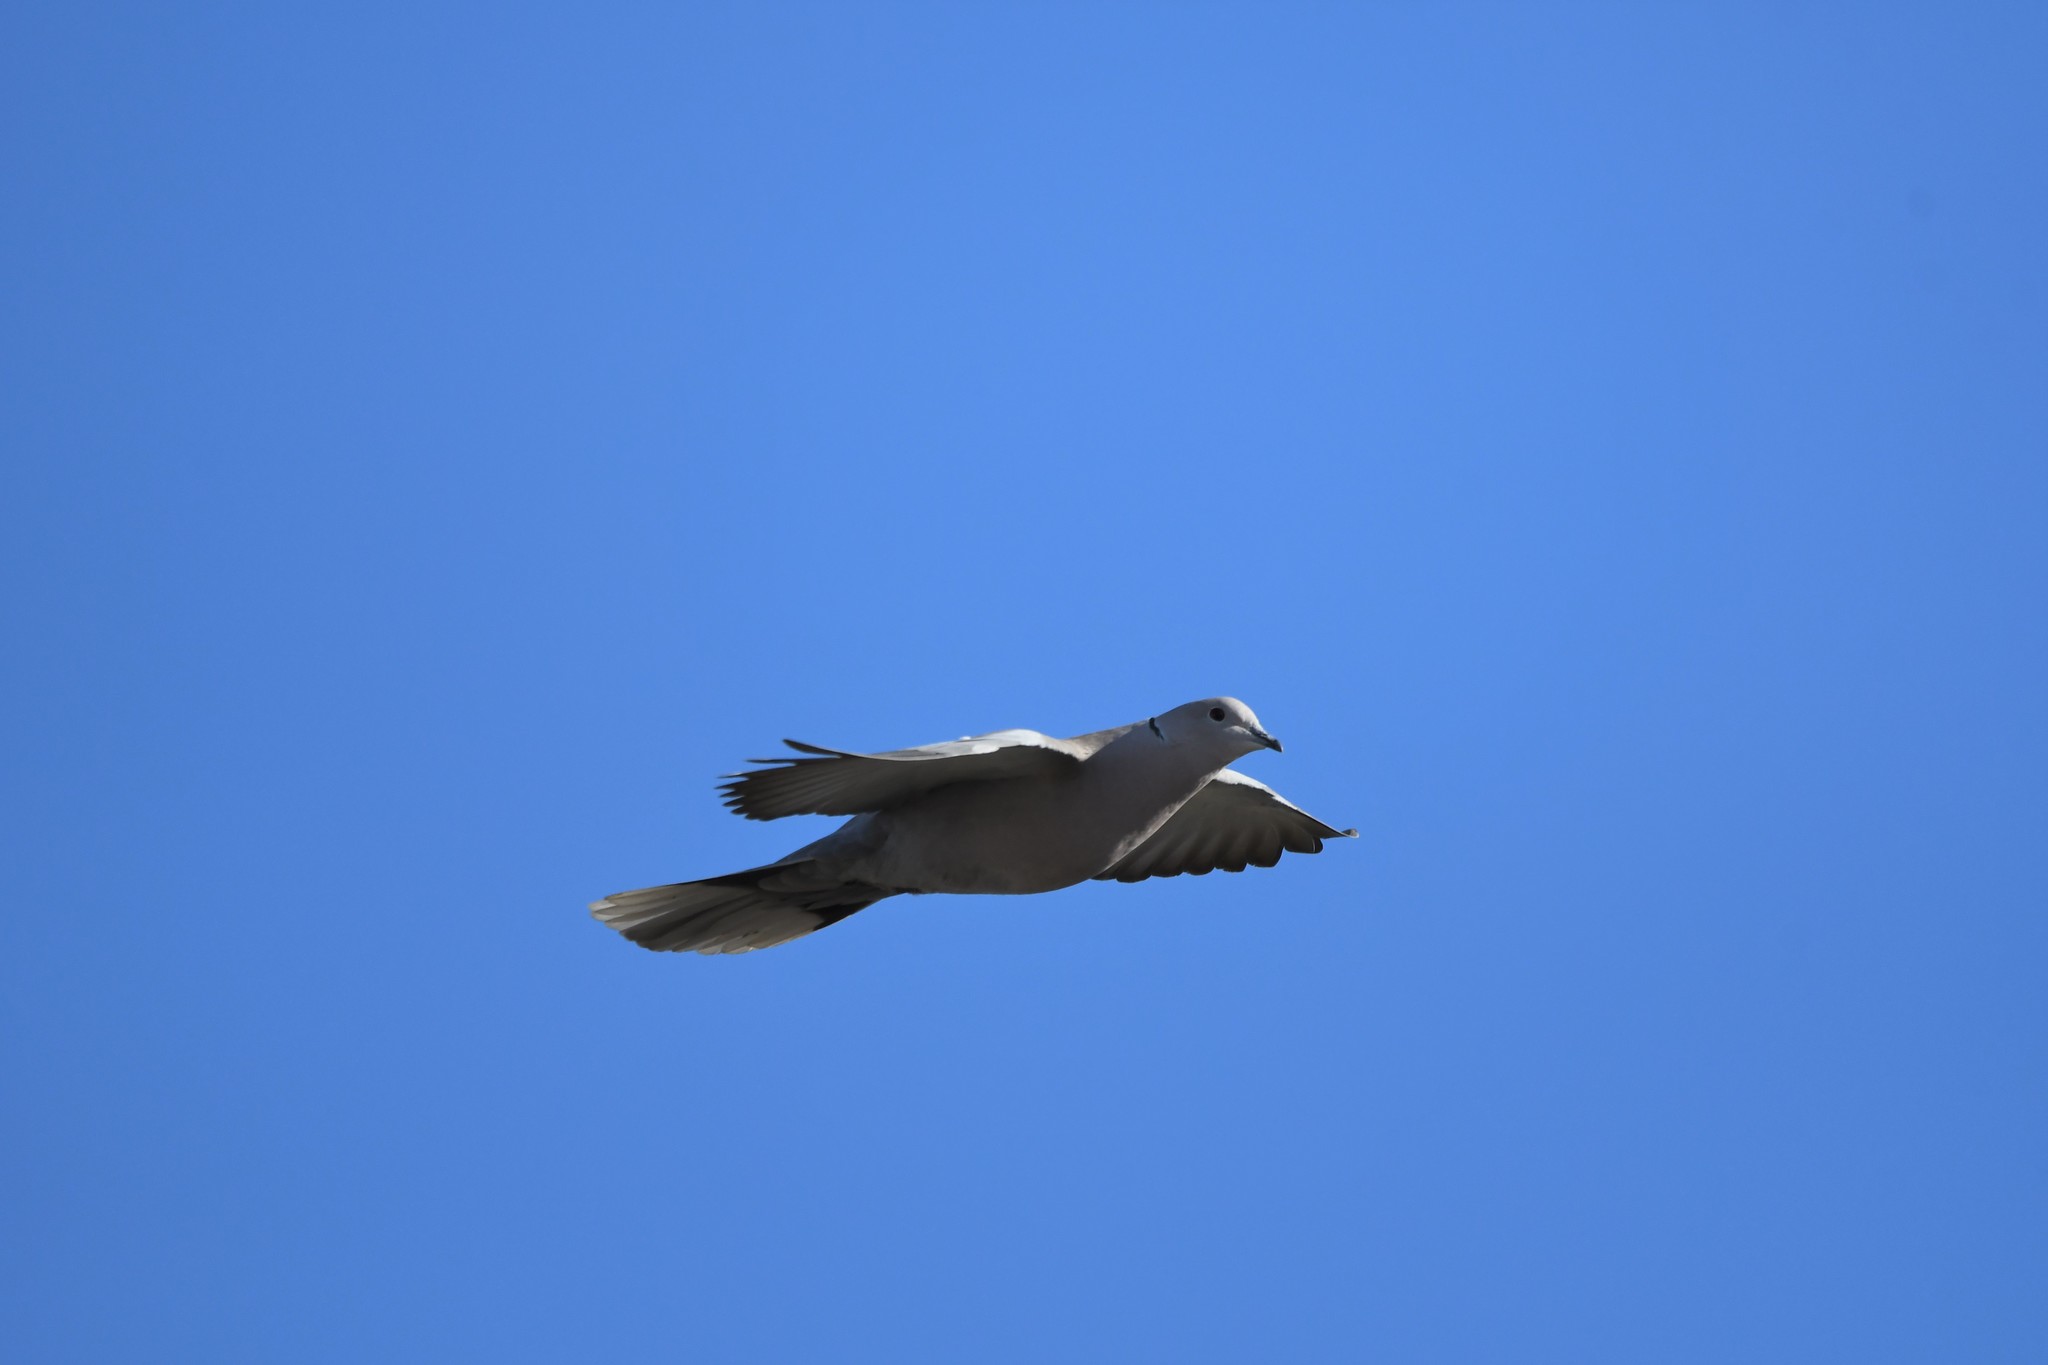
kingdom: Animalia
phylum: Chordata
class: Aves
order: Columbiformes
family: Columbidae
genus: Streptopelia
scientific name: Streptopelia decaocto
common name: Eurasian collared dove
